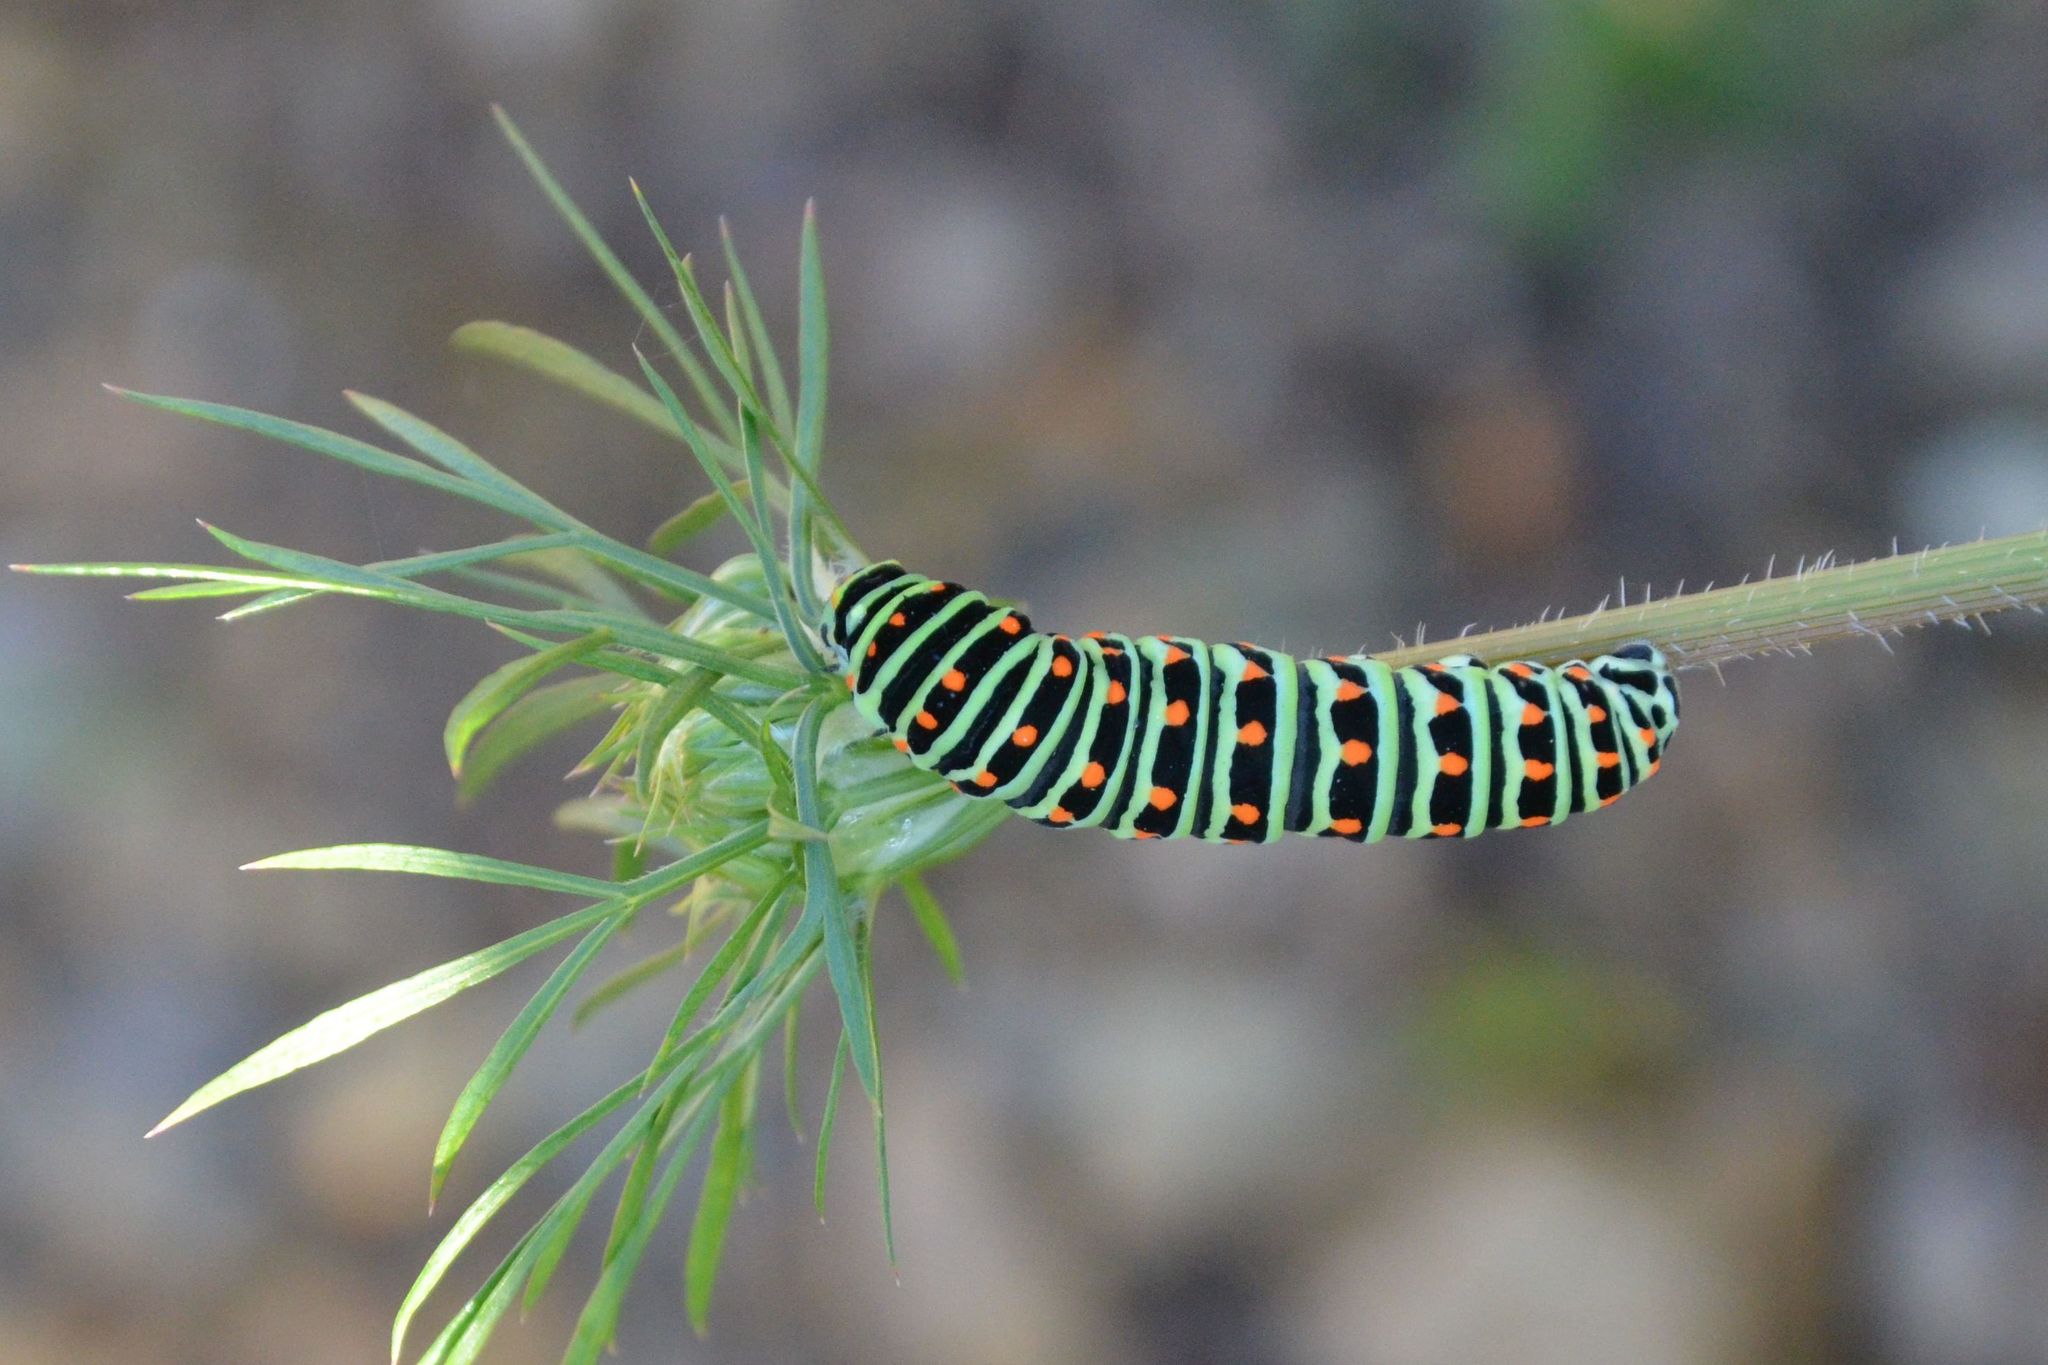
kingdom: Animalia
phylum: Arthropoda
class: Insecta
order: Lepidoptera
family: Papilionidae
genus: Papilio
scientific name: Papilio machaon
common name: Swallowtail
